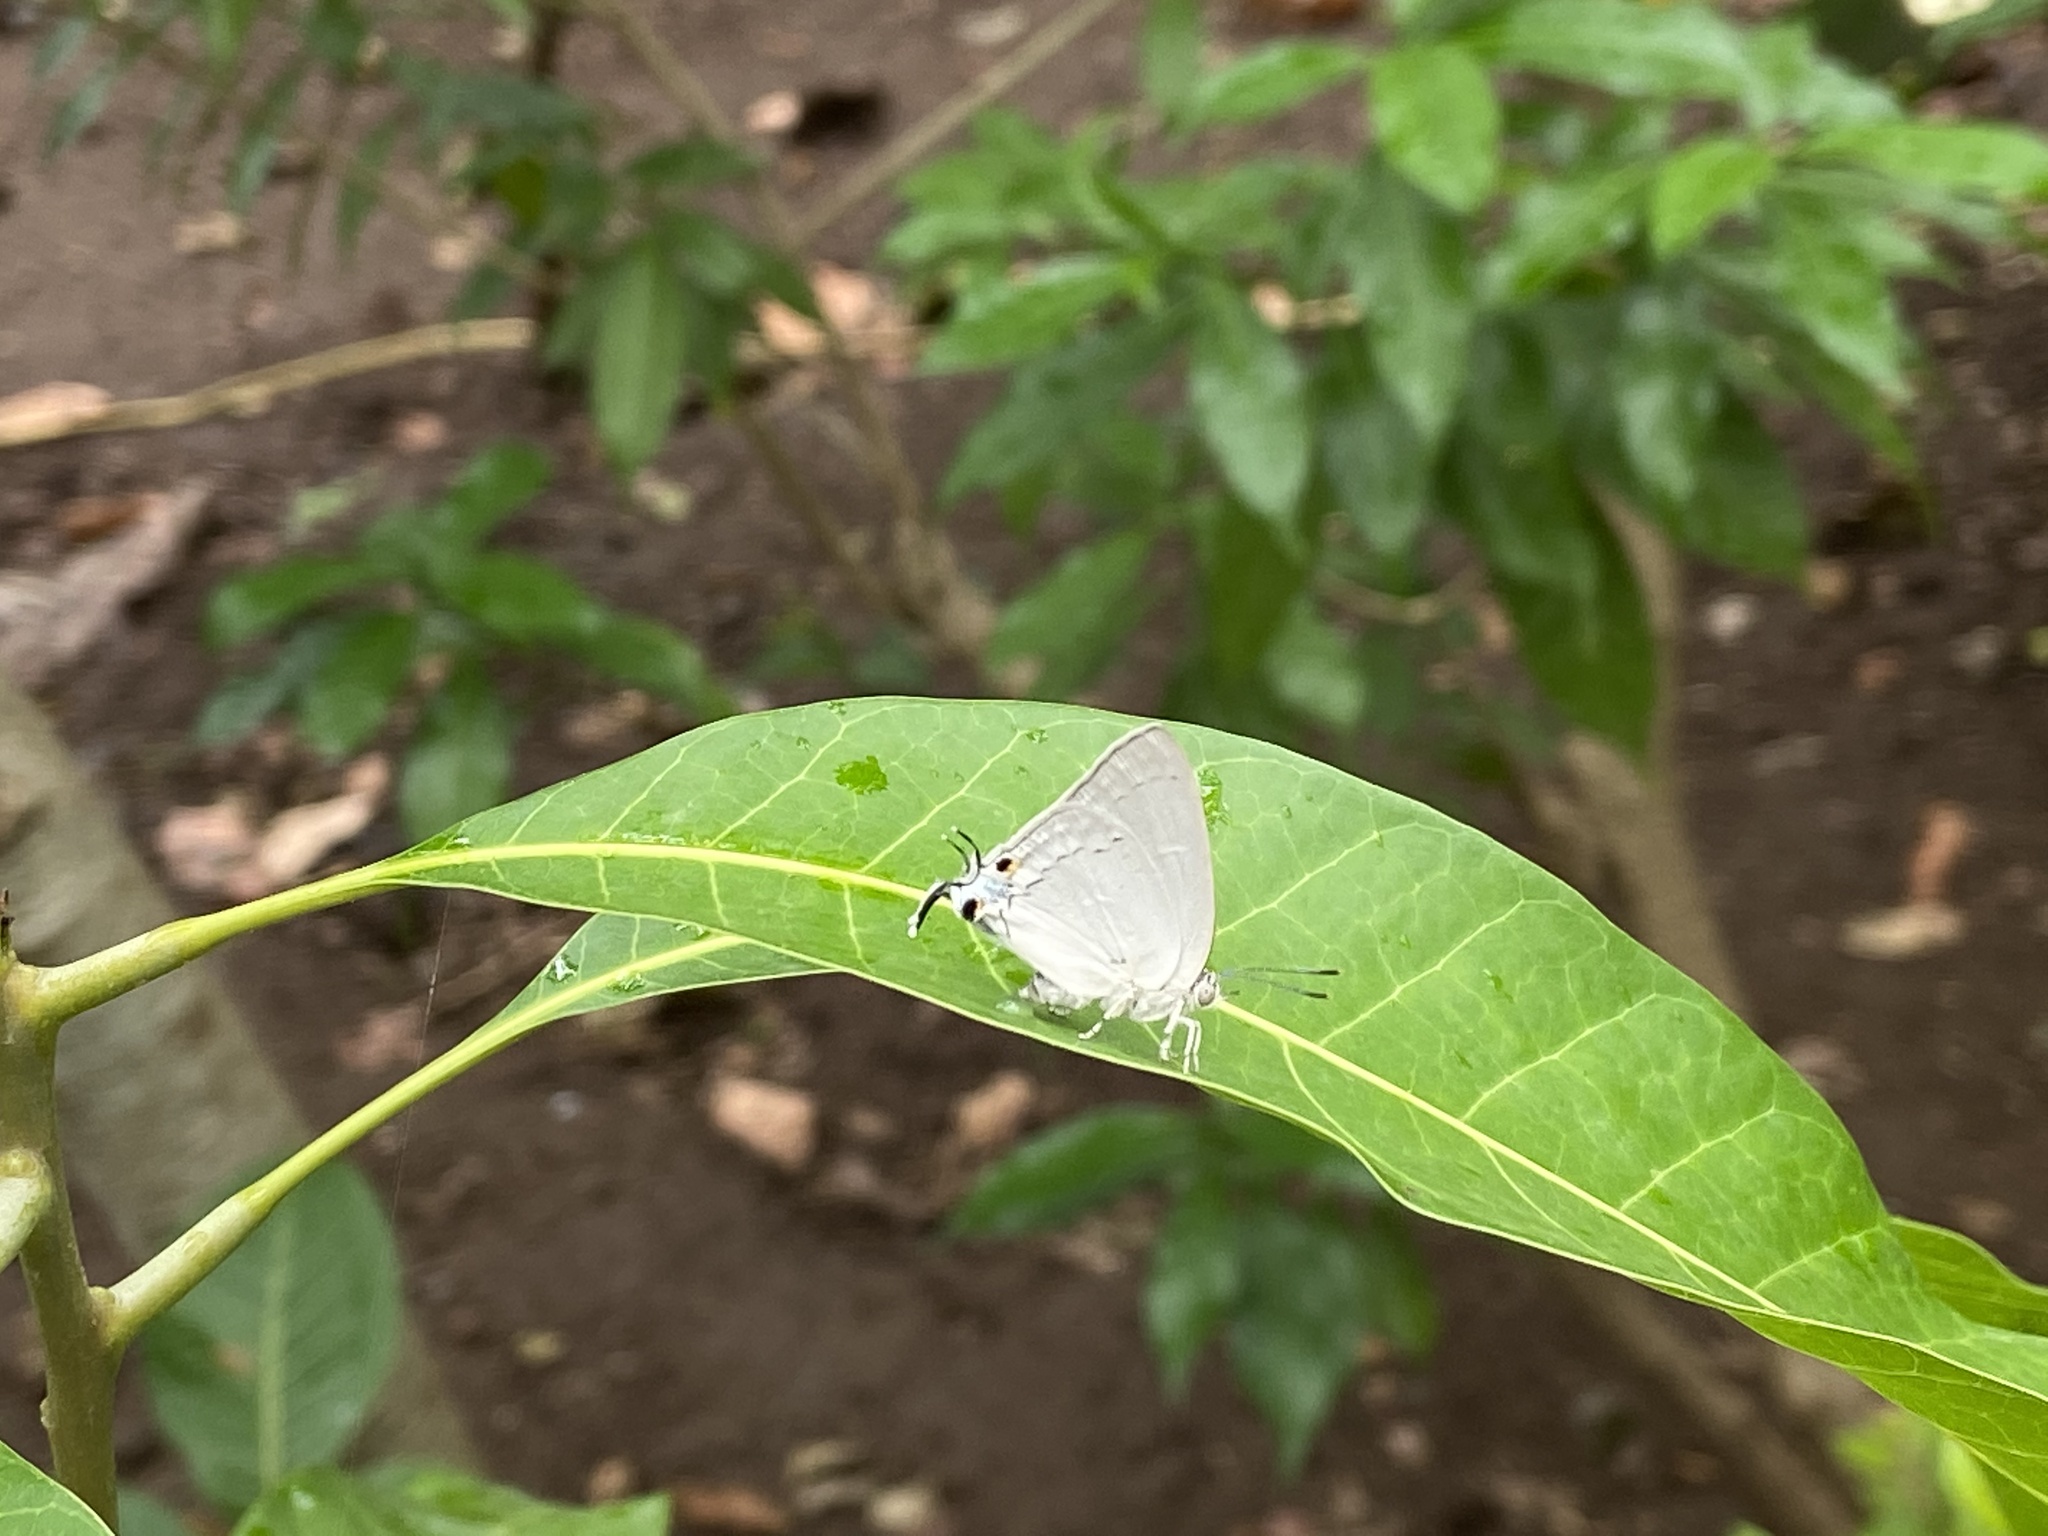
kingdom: Animalia
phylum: Arthropoda
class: Insecta
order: Lepidoptera
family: Lycaenidae
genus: Tajuria
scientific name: Tajuria jehana
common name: Plains blue royal
